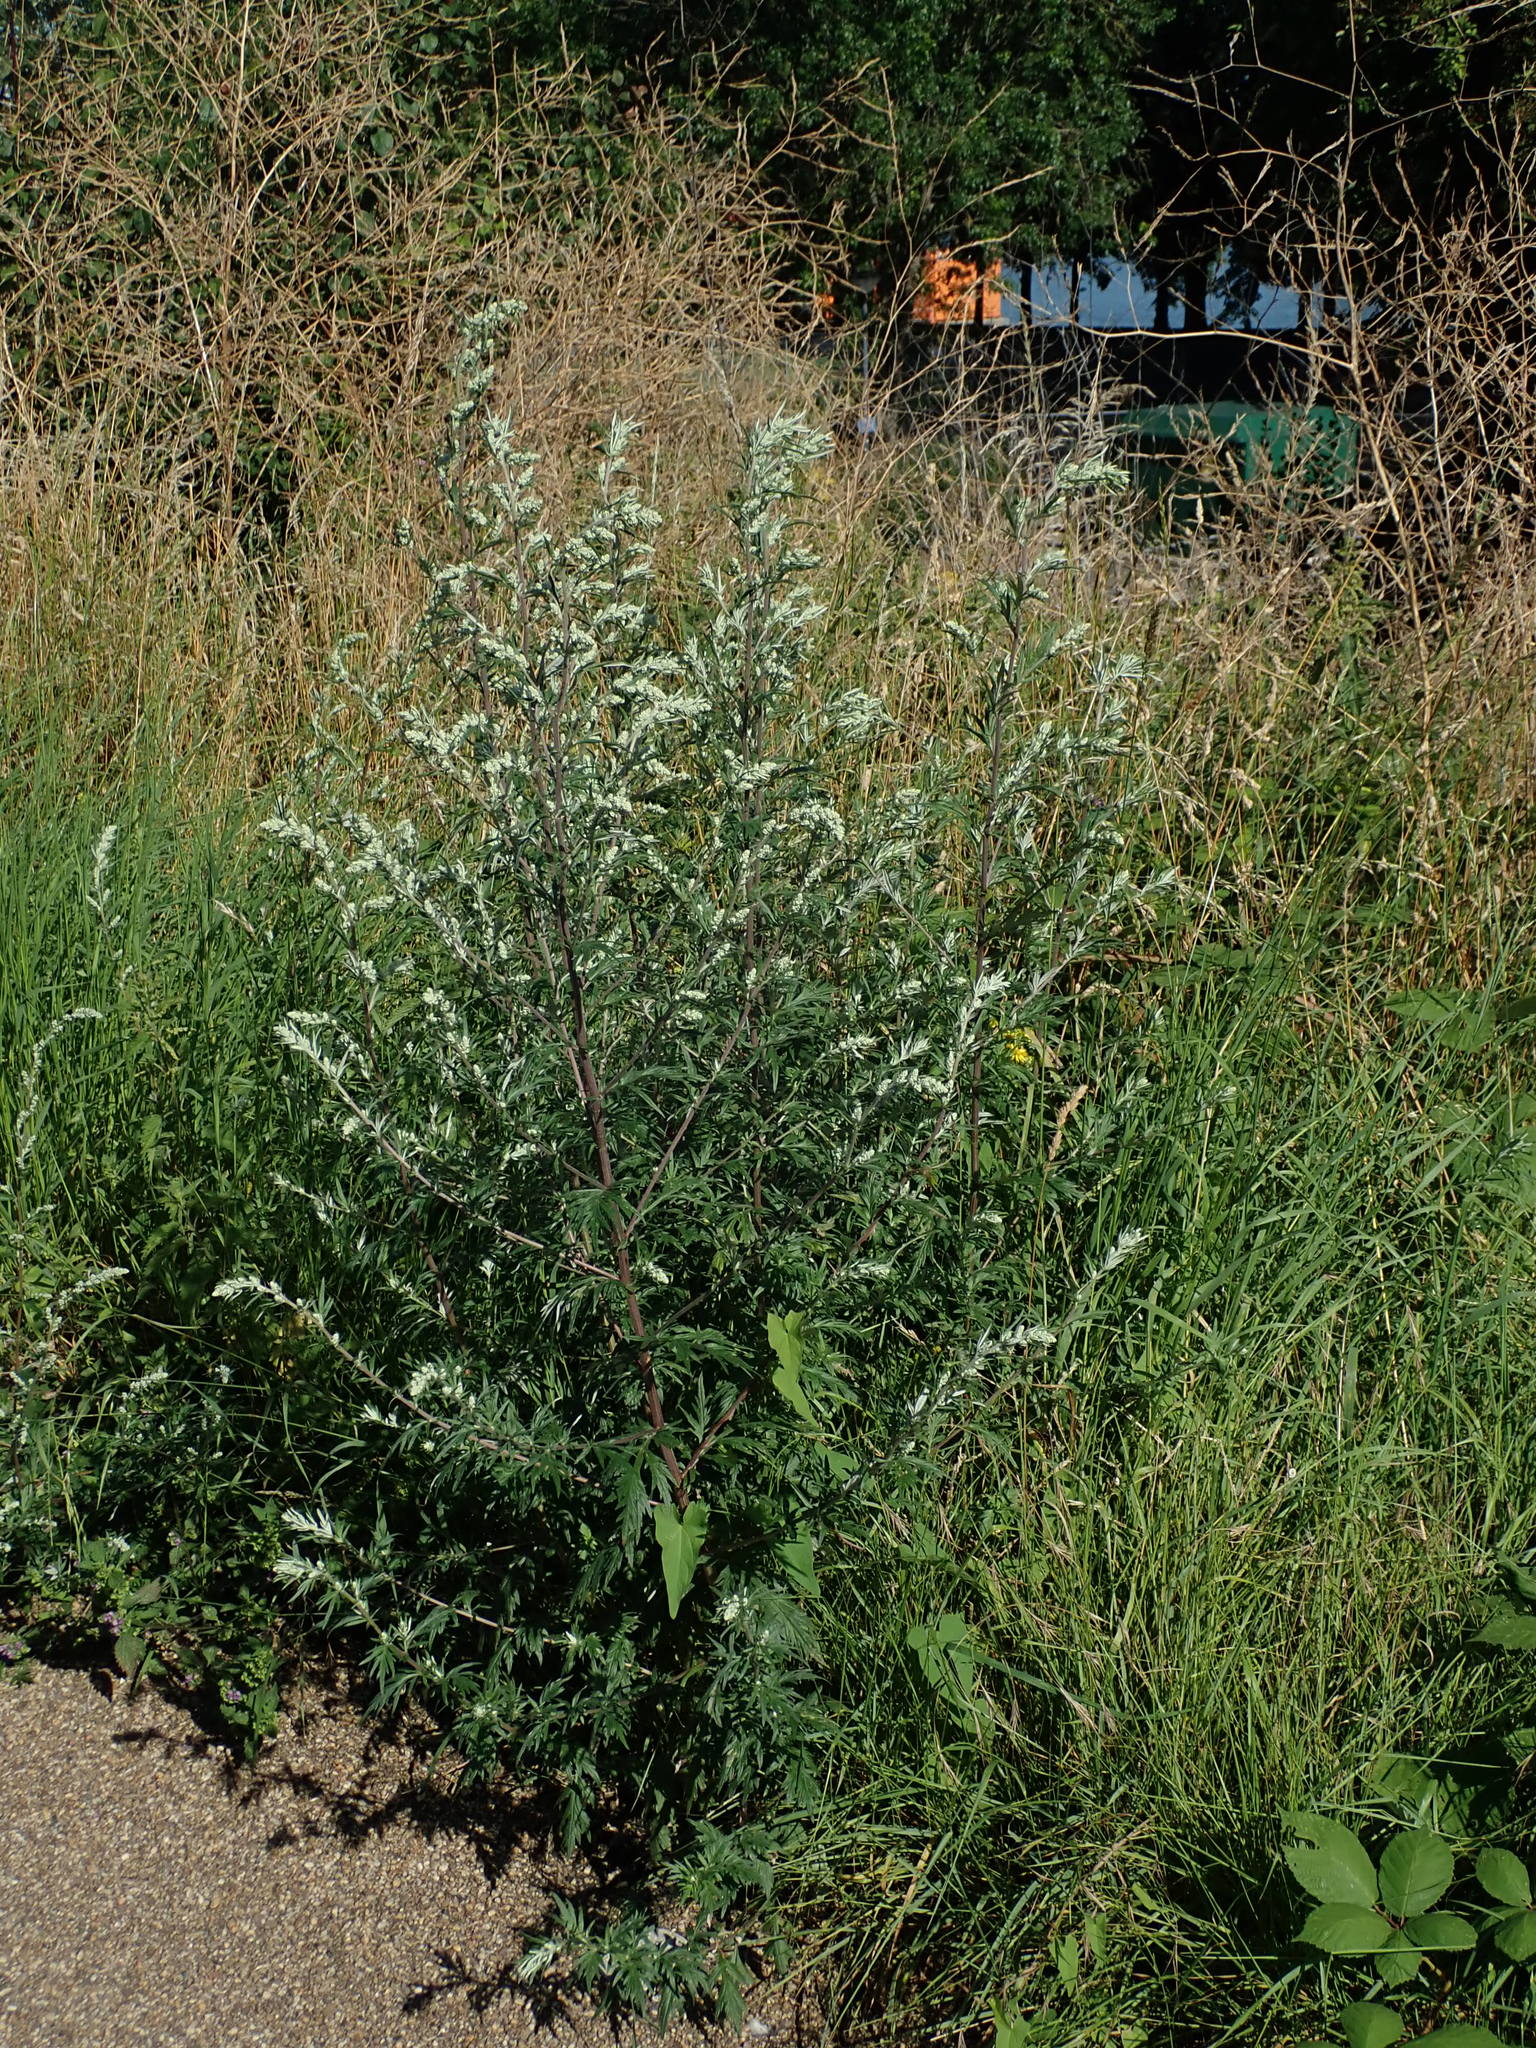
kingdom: Plantae
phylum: Tracheophyta
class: Magnoliopsida
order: Asterales
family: Asteraceae
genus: Artemisia
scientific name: Artemisia vulgaris
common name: Mugwort
